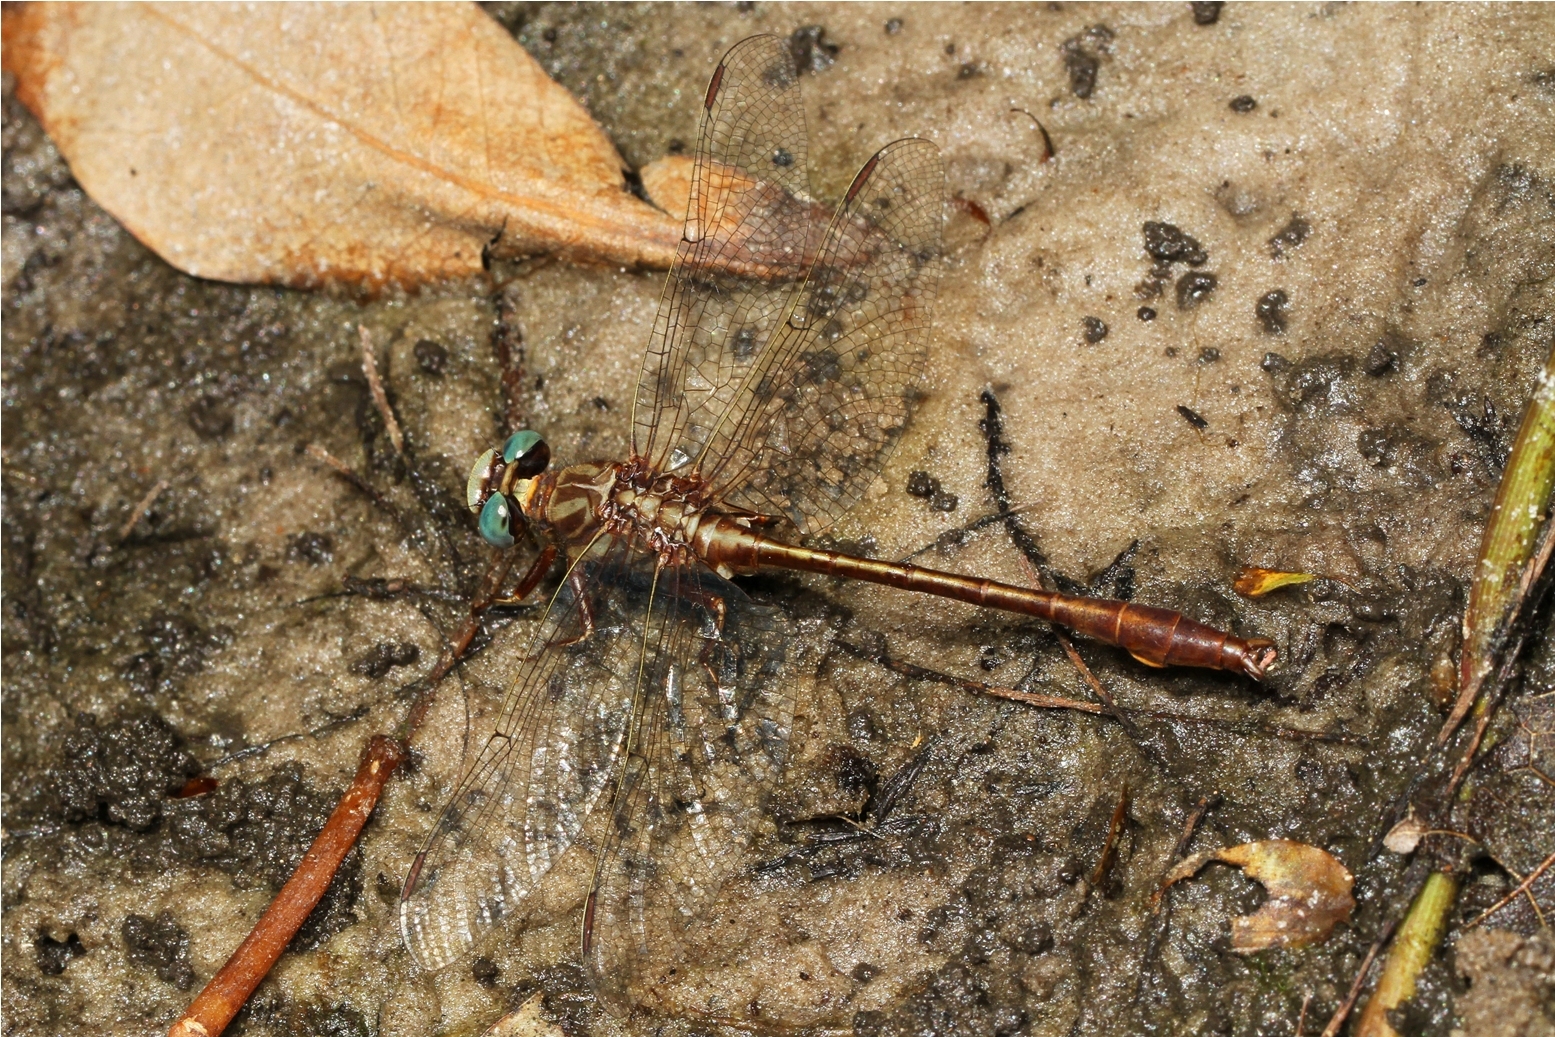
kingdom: Animalia
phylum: Arthropoda
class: Insecta
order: Odonata
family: Gomphidae
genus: Phanogomphus
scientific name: Phanogomphus minutus
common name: Cypress clubtail
